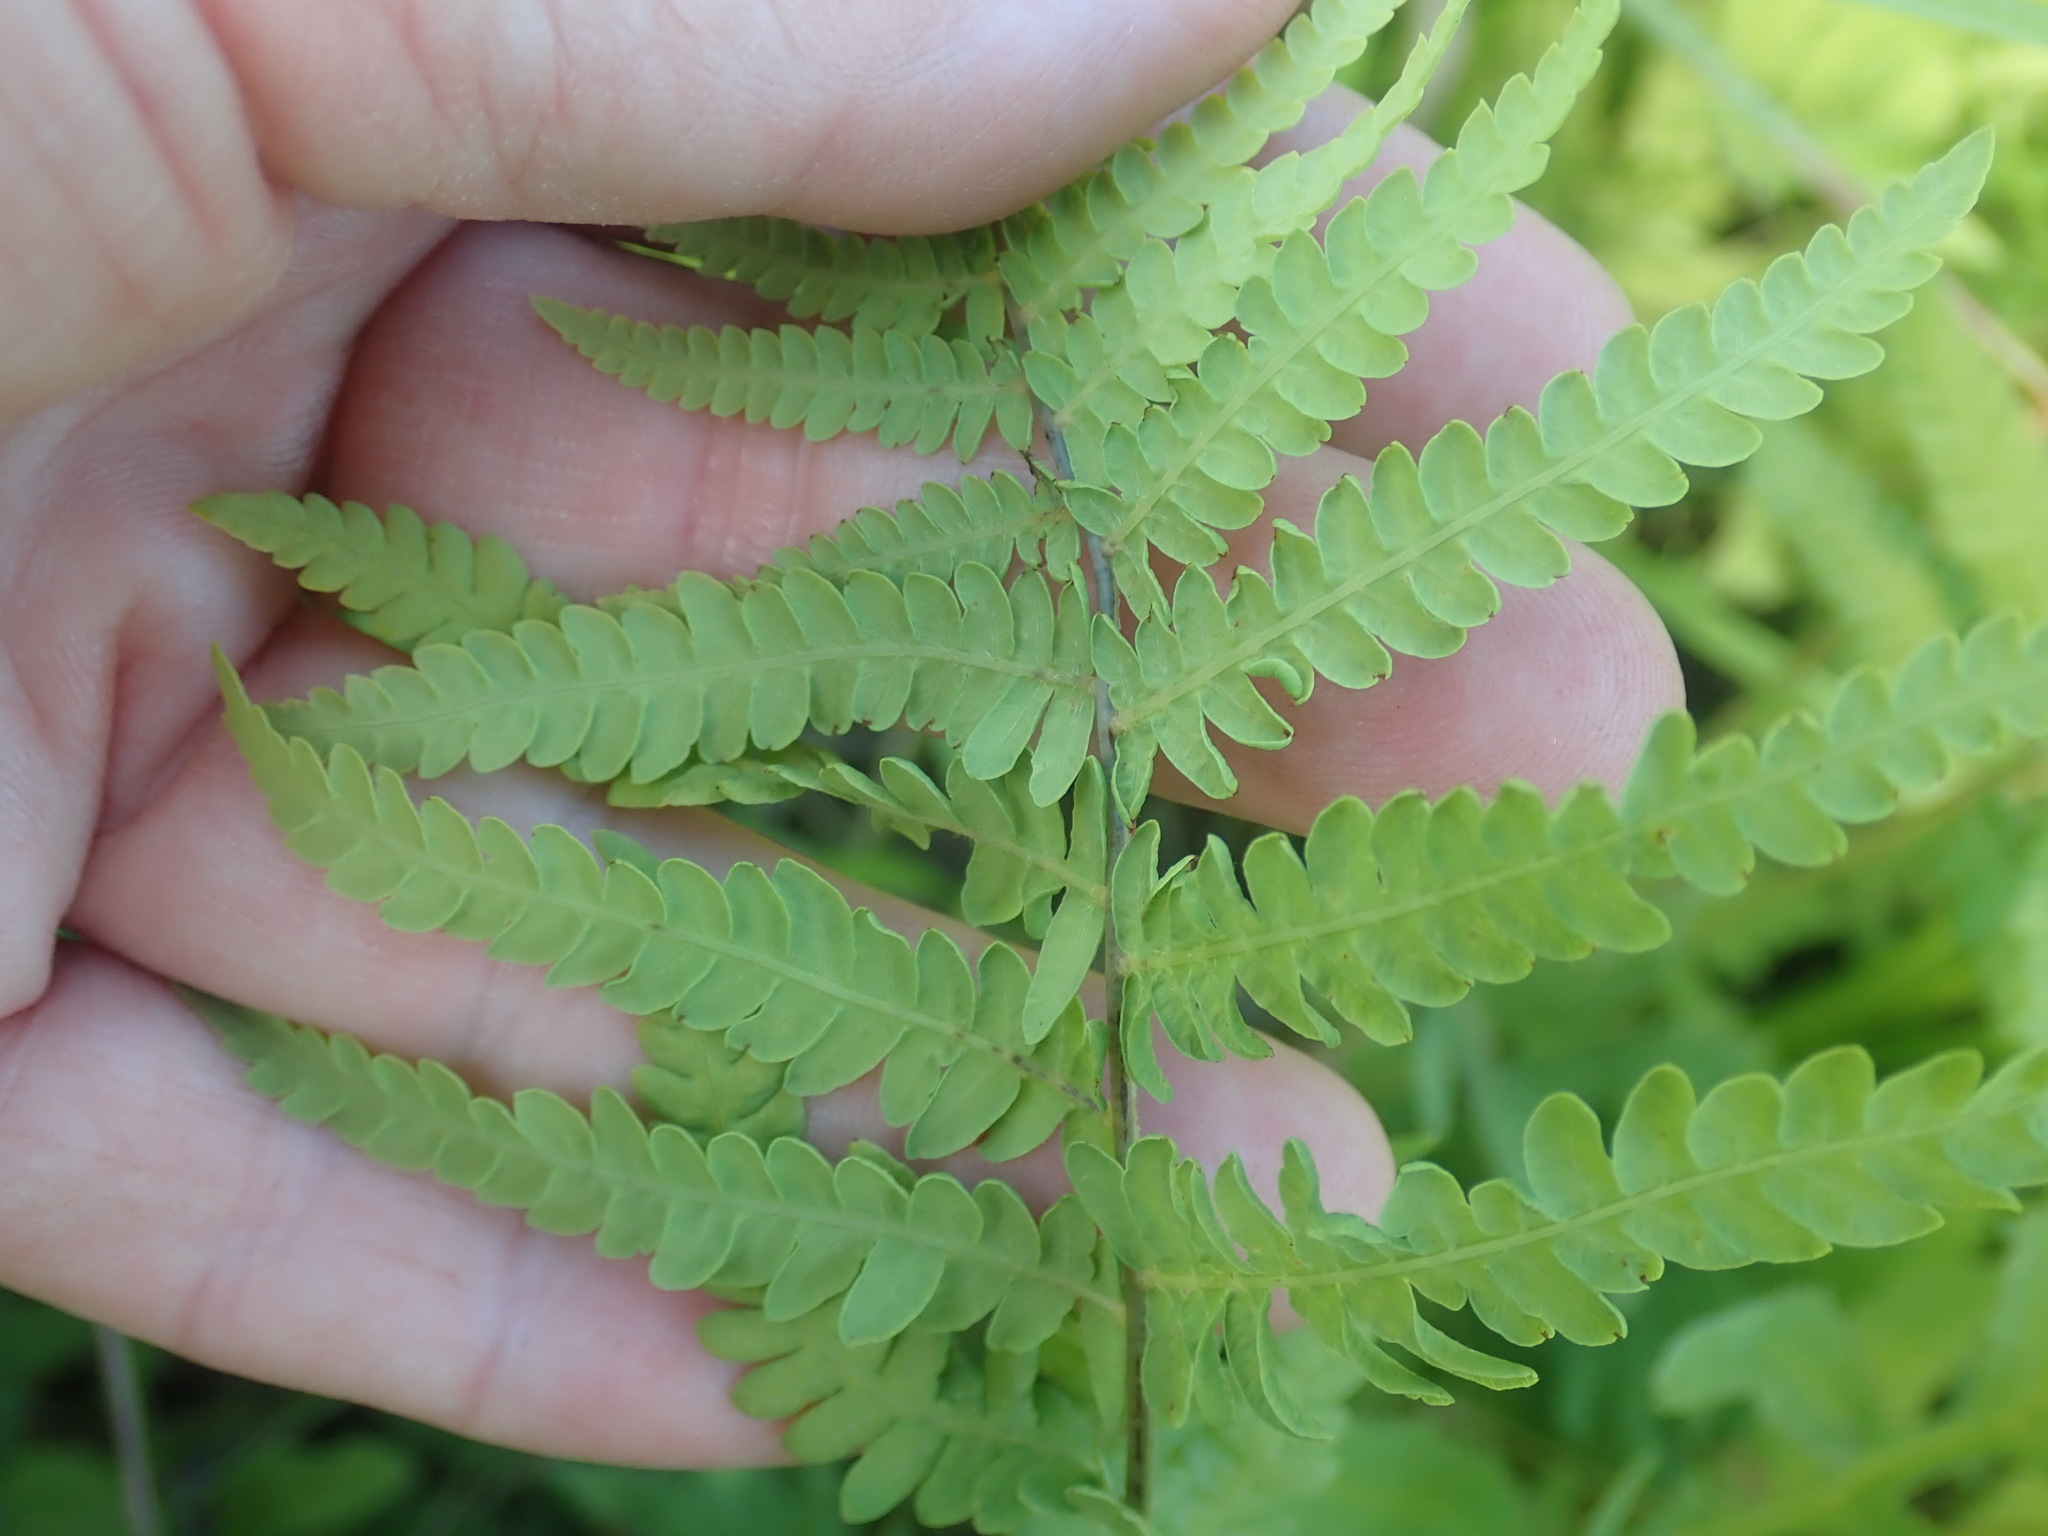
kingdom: Plantae
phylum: Tracheophyta
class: Polypodiopsida
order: Polypodiales
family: Thelypteridaceae
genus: Thelypteris
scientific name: Thelypteris palustris
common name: Marsh fern
